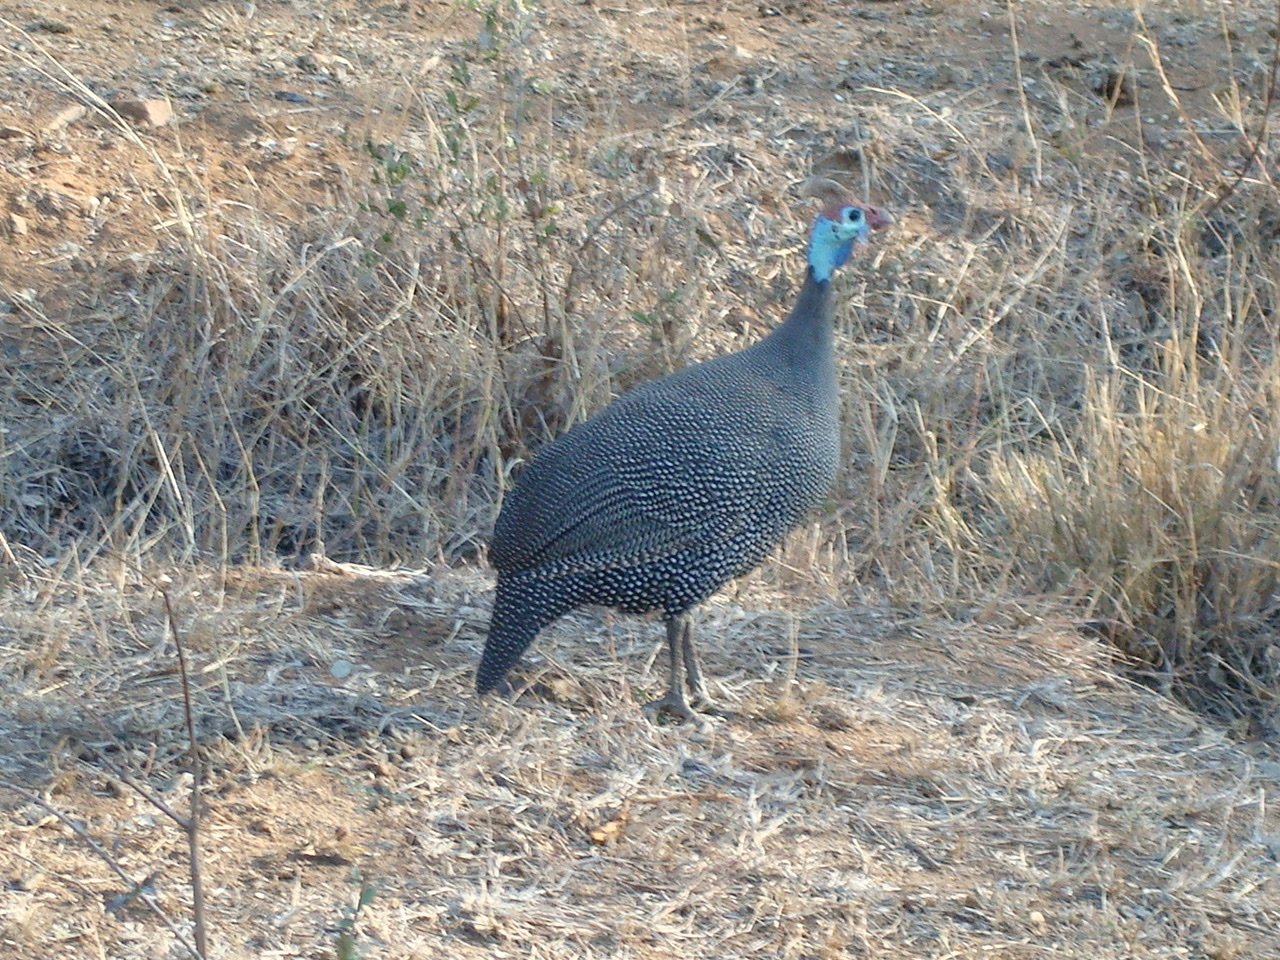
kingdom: Animalia
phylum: Chordata
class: Aves
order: Galliformes
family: Numididae
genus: Numida
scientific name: Numida meleagris
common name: Helmeted guineafowl
